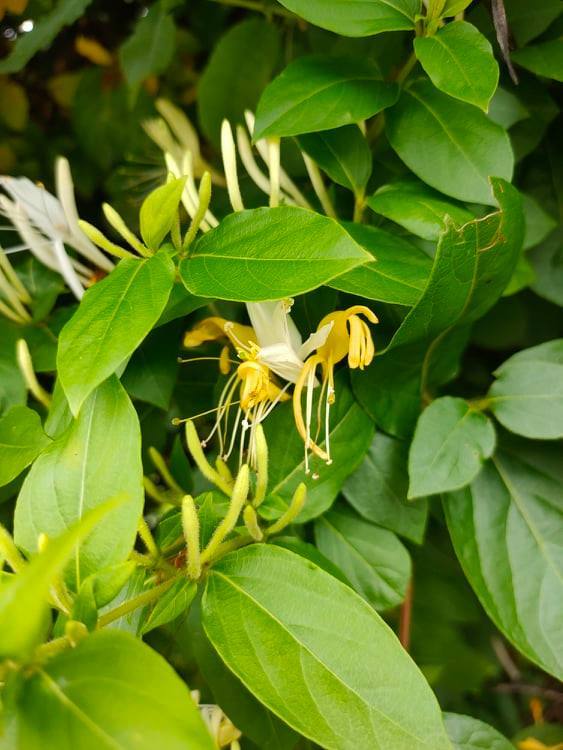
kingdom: Plantae
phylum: Tracheophyta
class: Magnoliopsida
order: Dipsacales
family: Caprifoliaceae
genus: Lonicera
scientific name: Lonicera japonica
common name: Japanese honeysuckle
